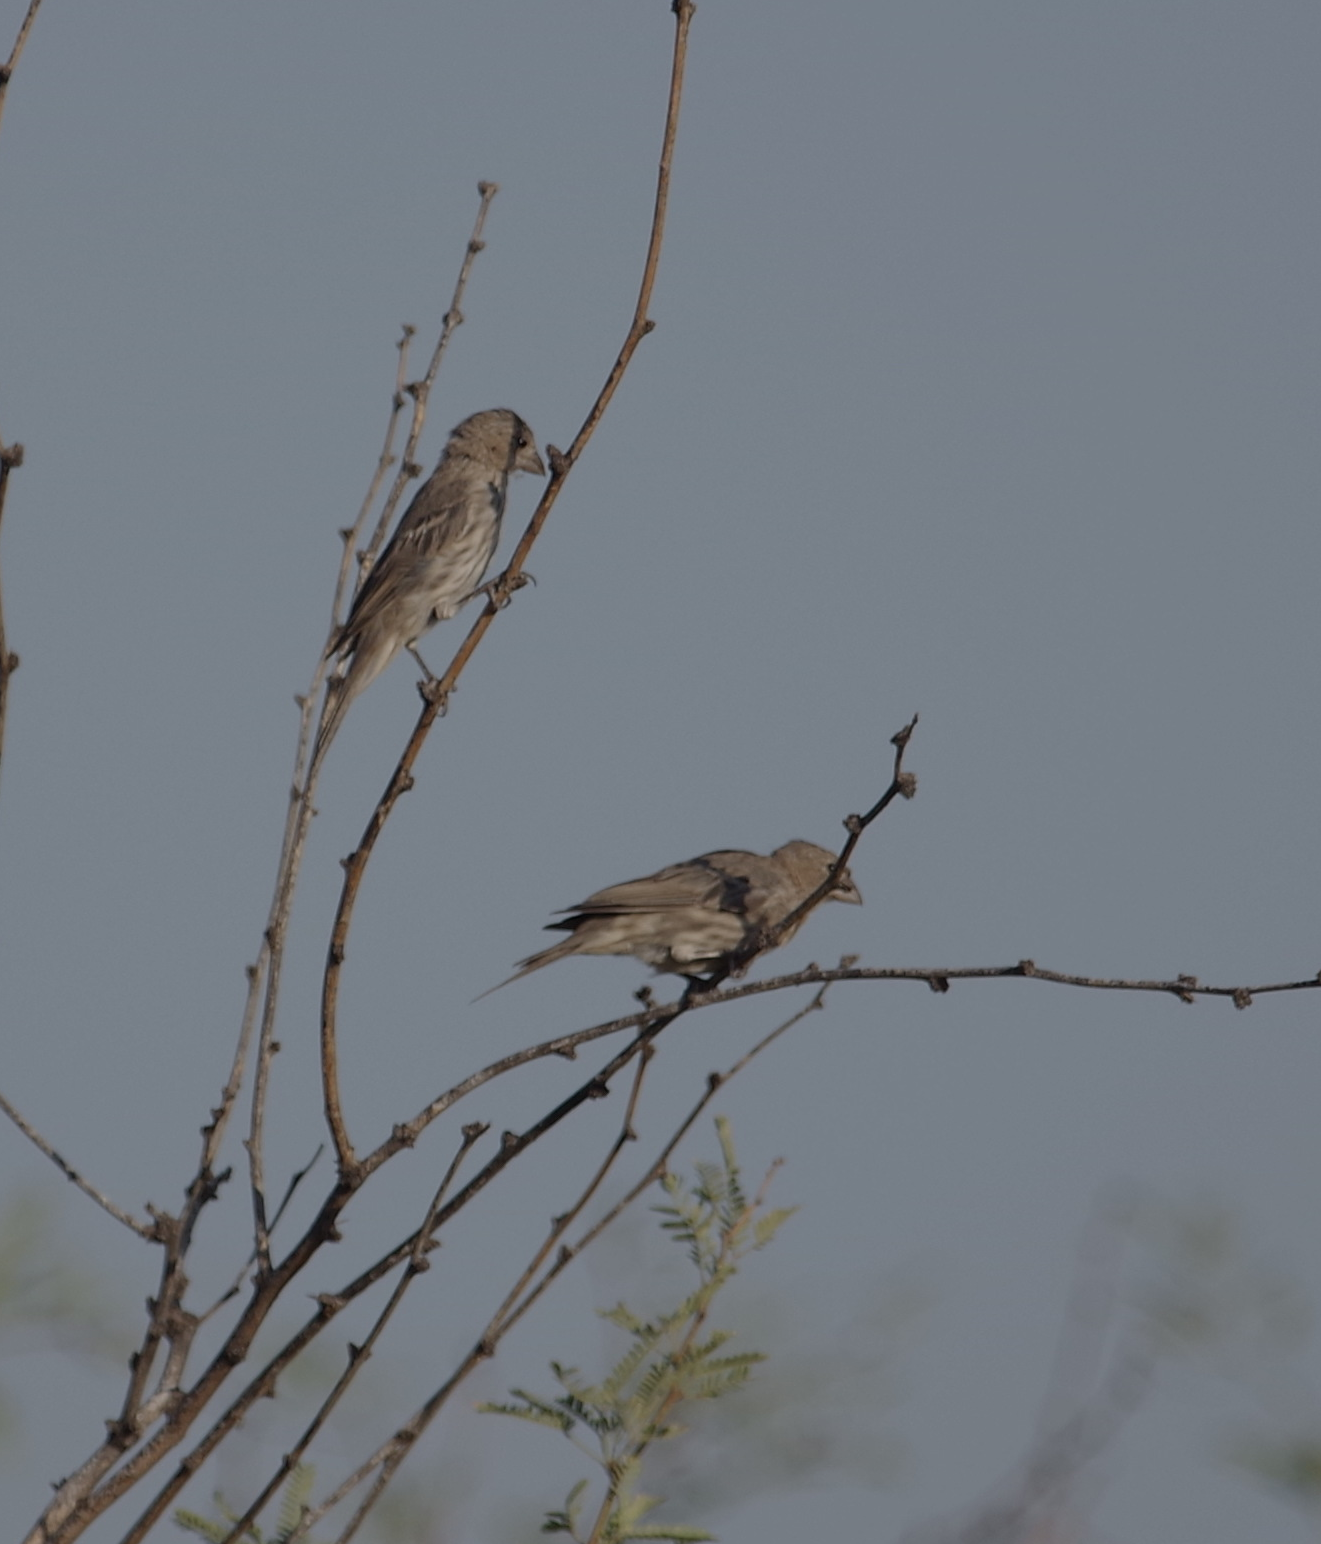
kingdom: Animalia
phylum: Chordata
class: Aves
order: Passeriformes
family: Fringillidae
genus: Haemorhous
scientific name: Haemorhous mexicanus
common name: House finch
